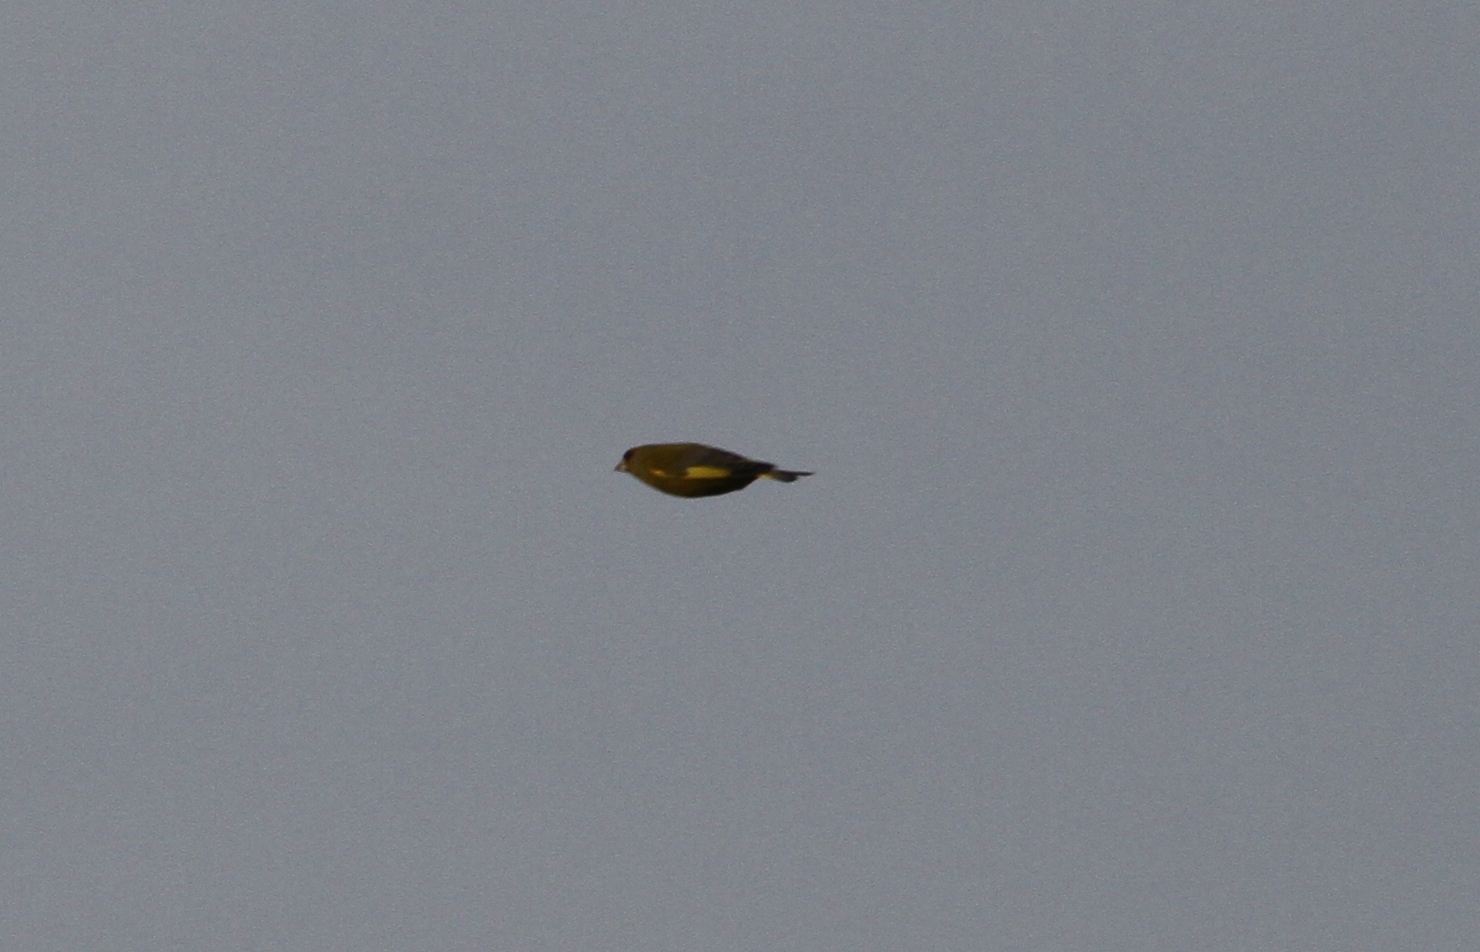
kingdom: Plantae
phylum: Tracheophyta
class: Liliopsida
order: Poales
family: Poaceae
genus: Chloris
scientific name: Chloris chloris
